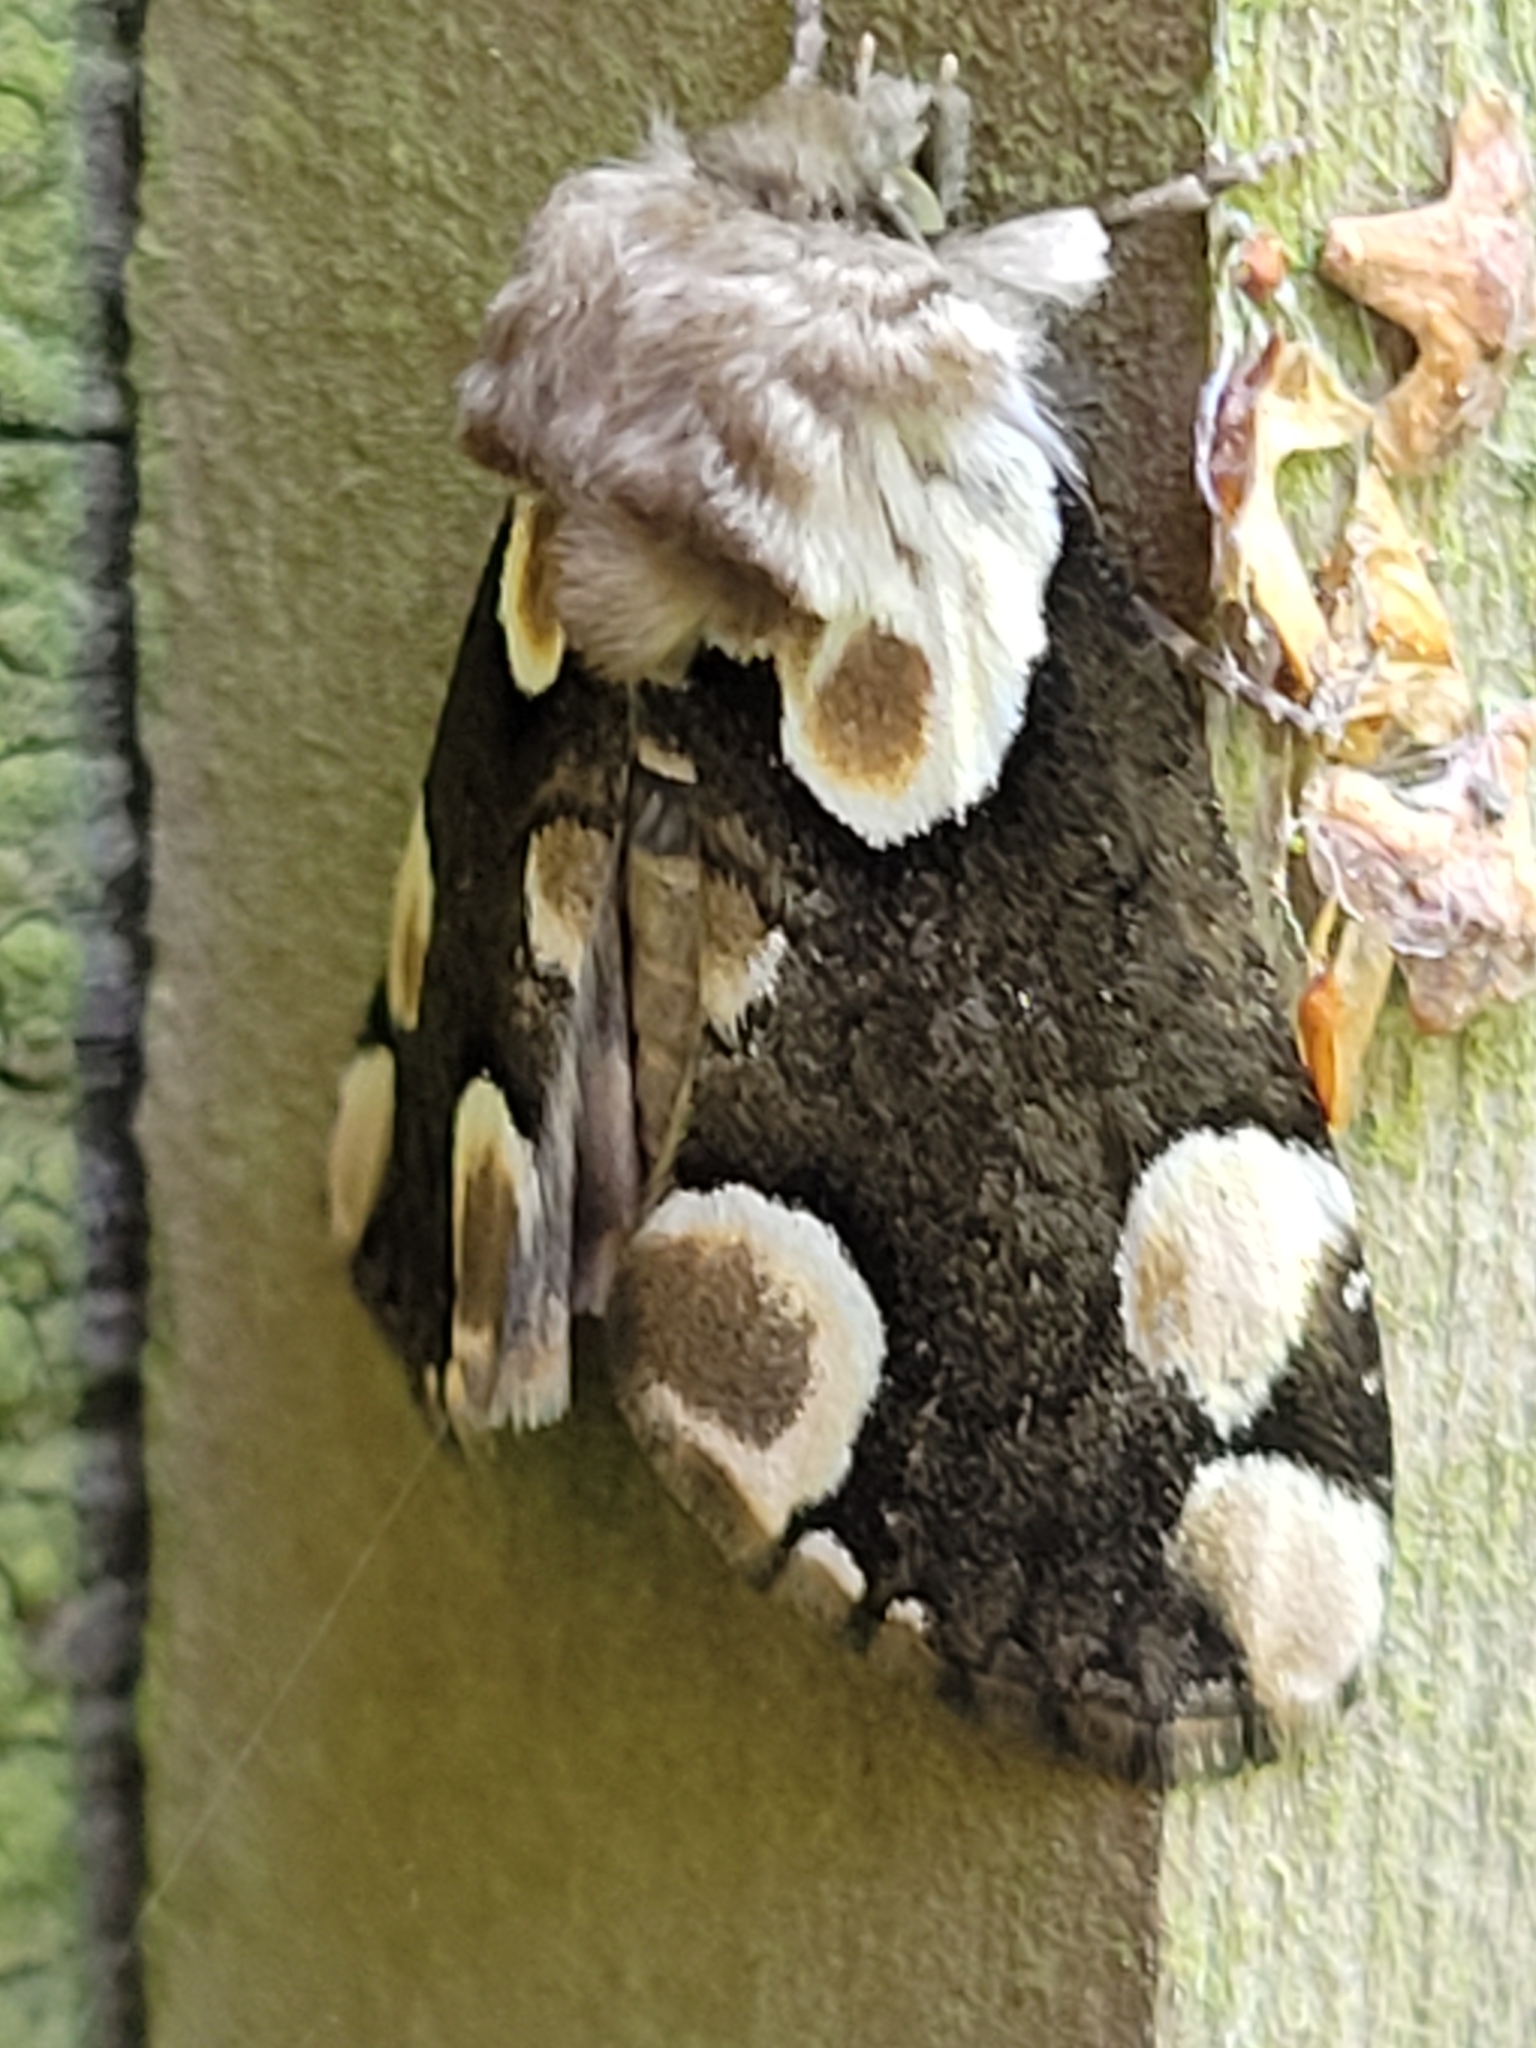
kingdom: Animalia
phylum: Arthropoda
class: Insecta
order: Lepidoptera
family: Drepanidae
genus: Thyatira
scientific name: Thyatira batis
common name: Peach blossom
